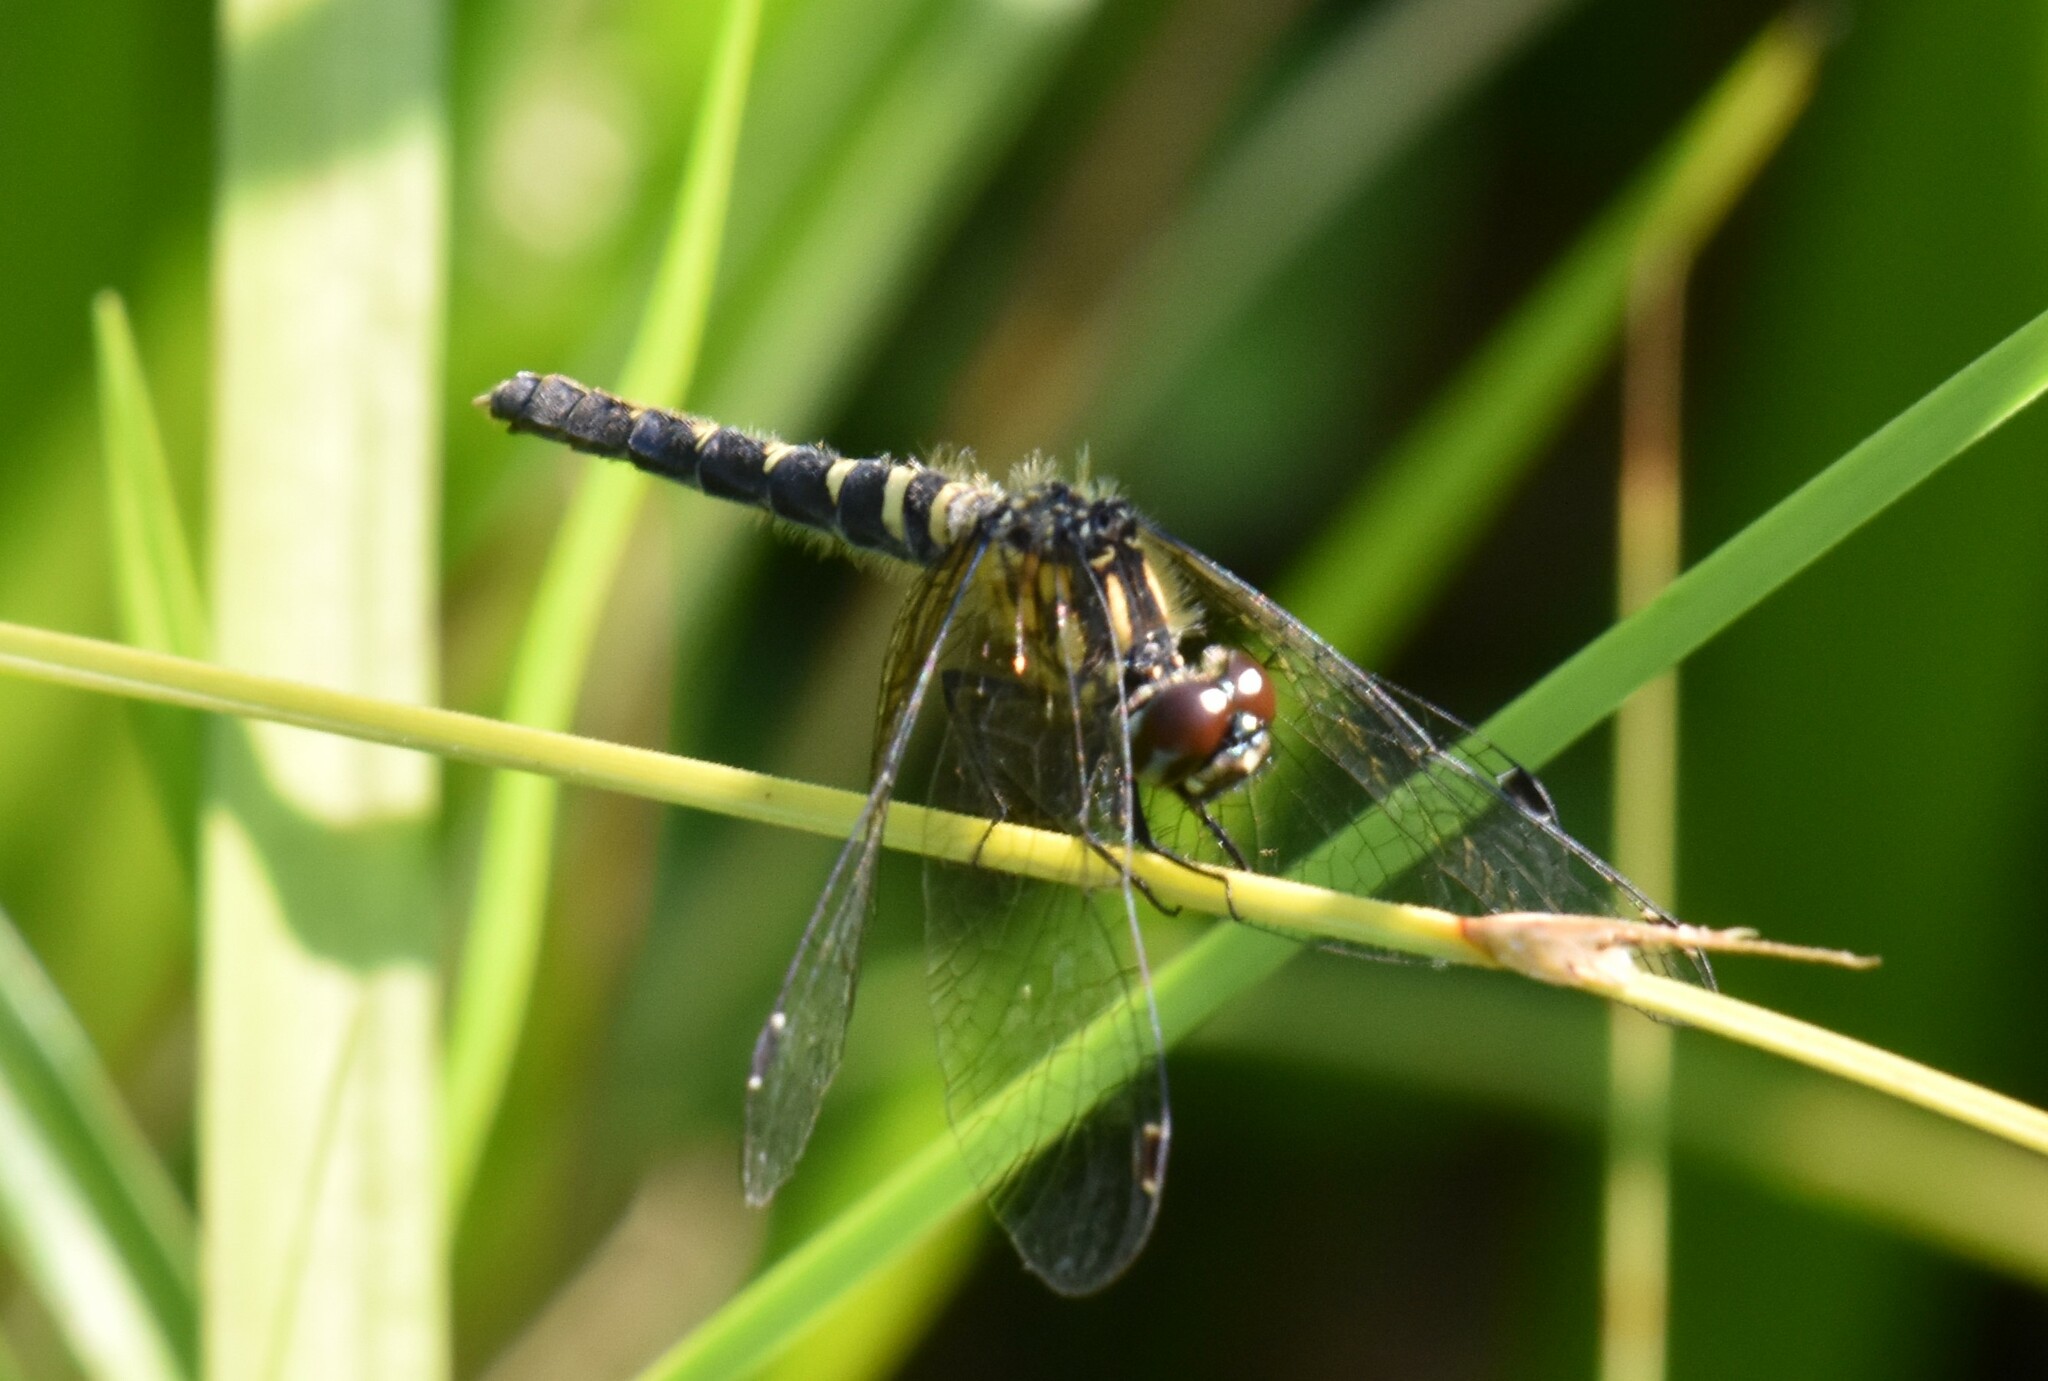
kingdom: Animalia
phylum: Arthropoda
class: Insecta
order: Odonata
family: Libellulidae
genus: Nannothemis
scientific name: Nannothemis bella
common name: Elfin skimmer
